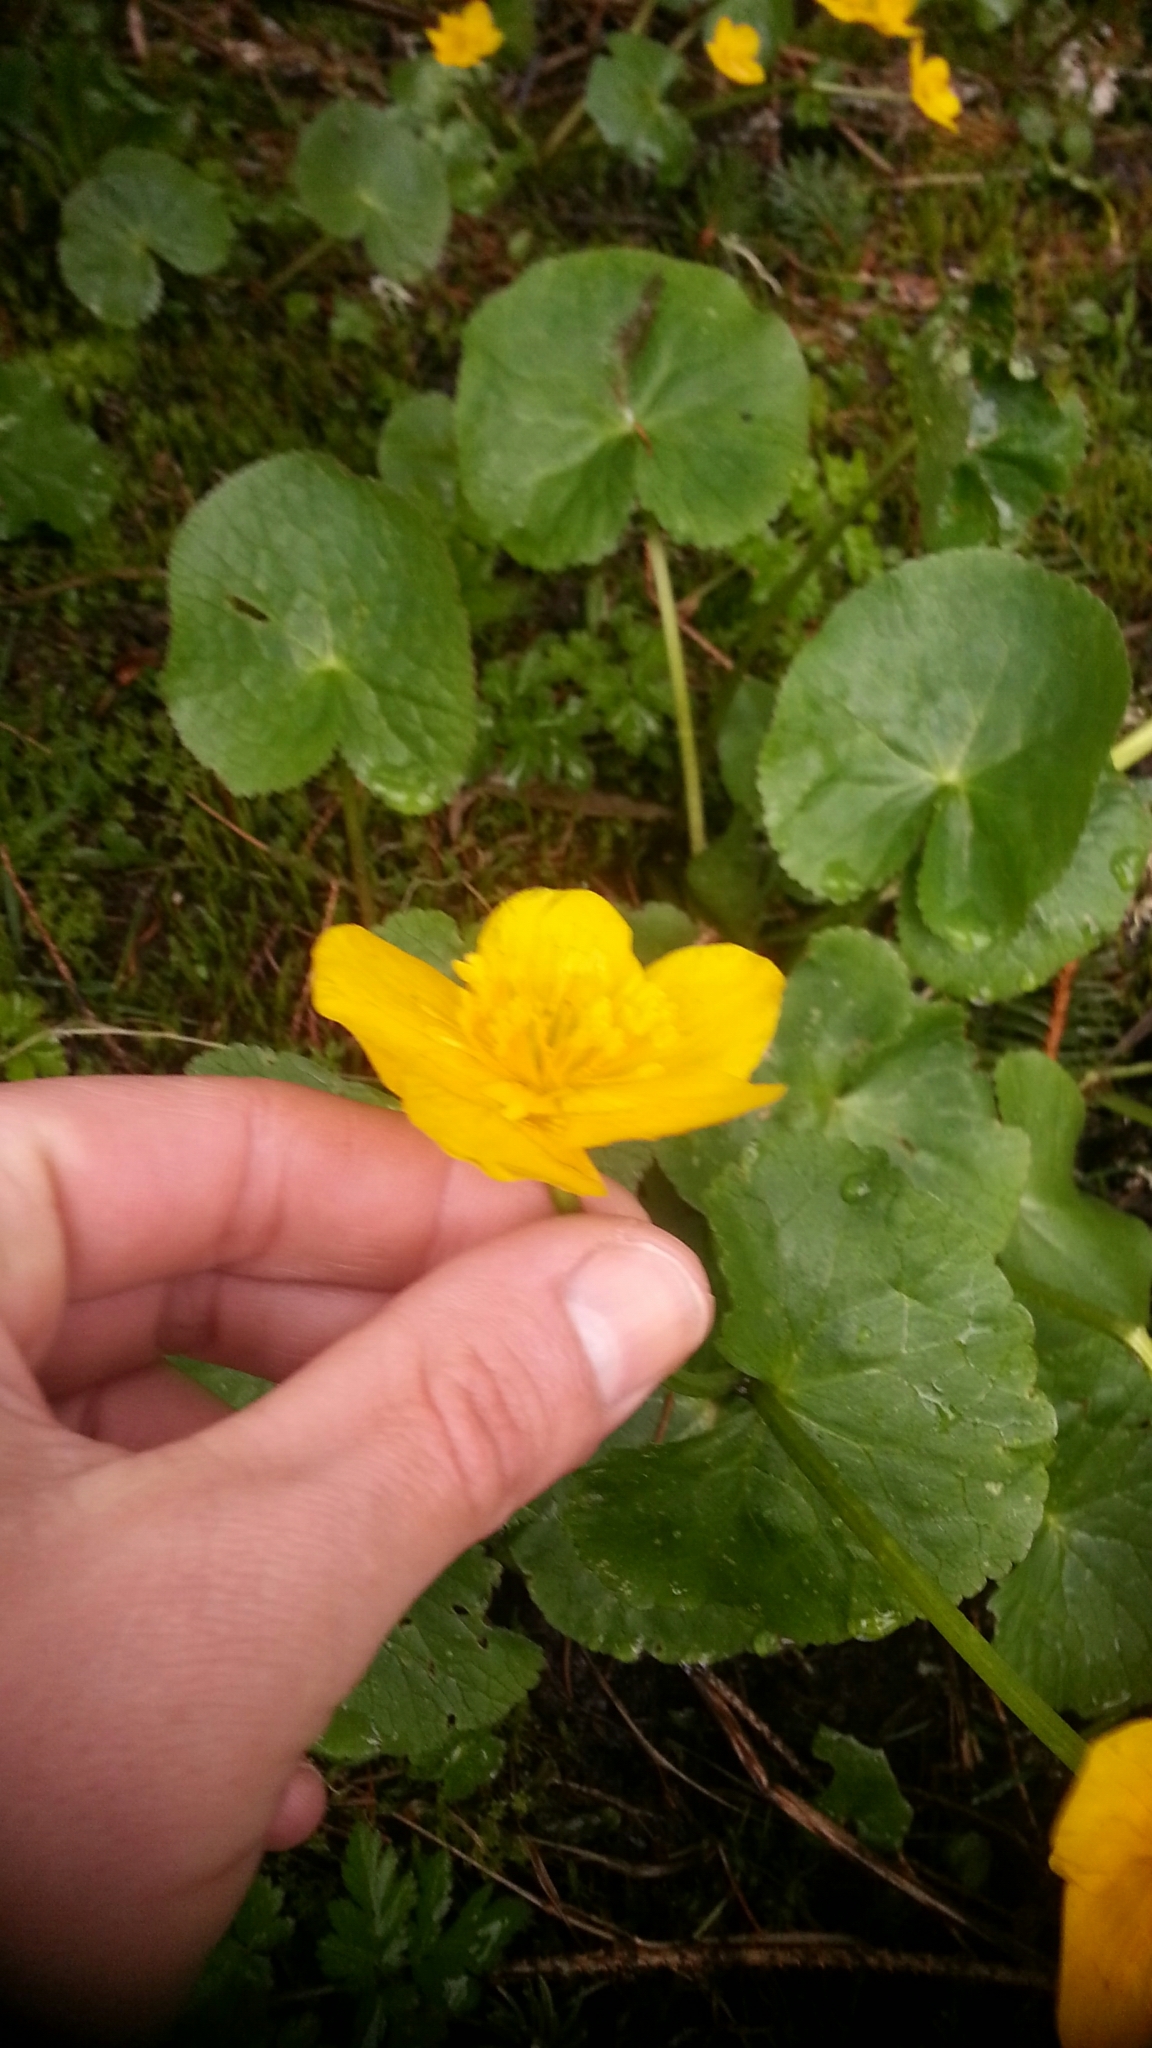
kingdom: Plantae
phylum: Tracheophyta
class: Magnoliopsida
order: Ranunculales
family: Ranunculaceae
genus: Caltha
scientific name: Caltha palustris
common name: Marsh marigold
